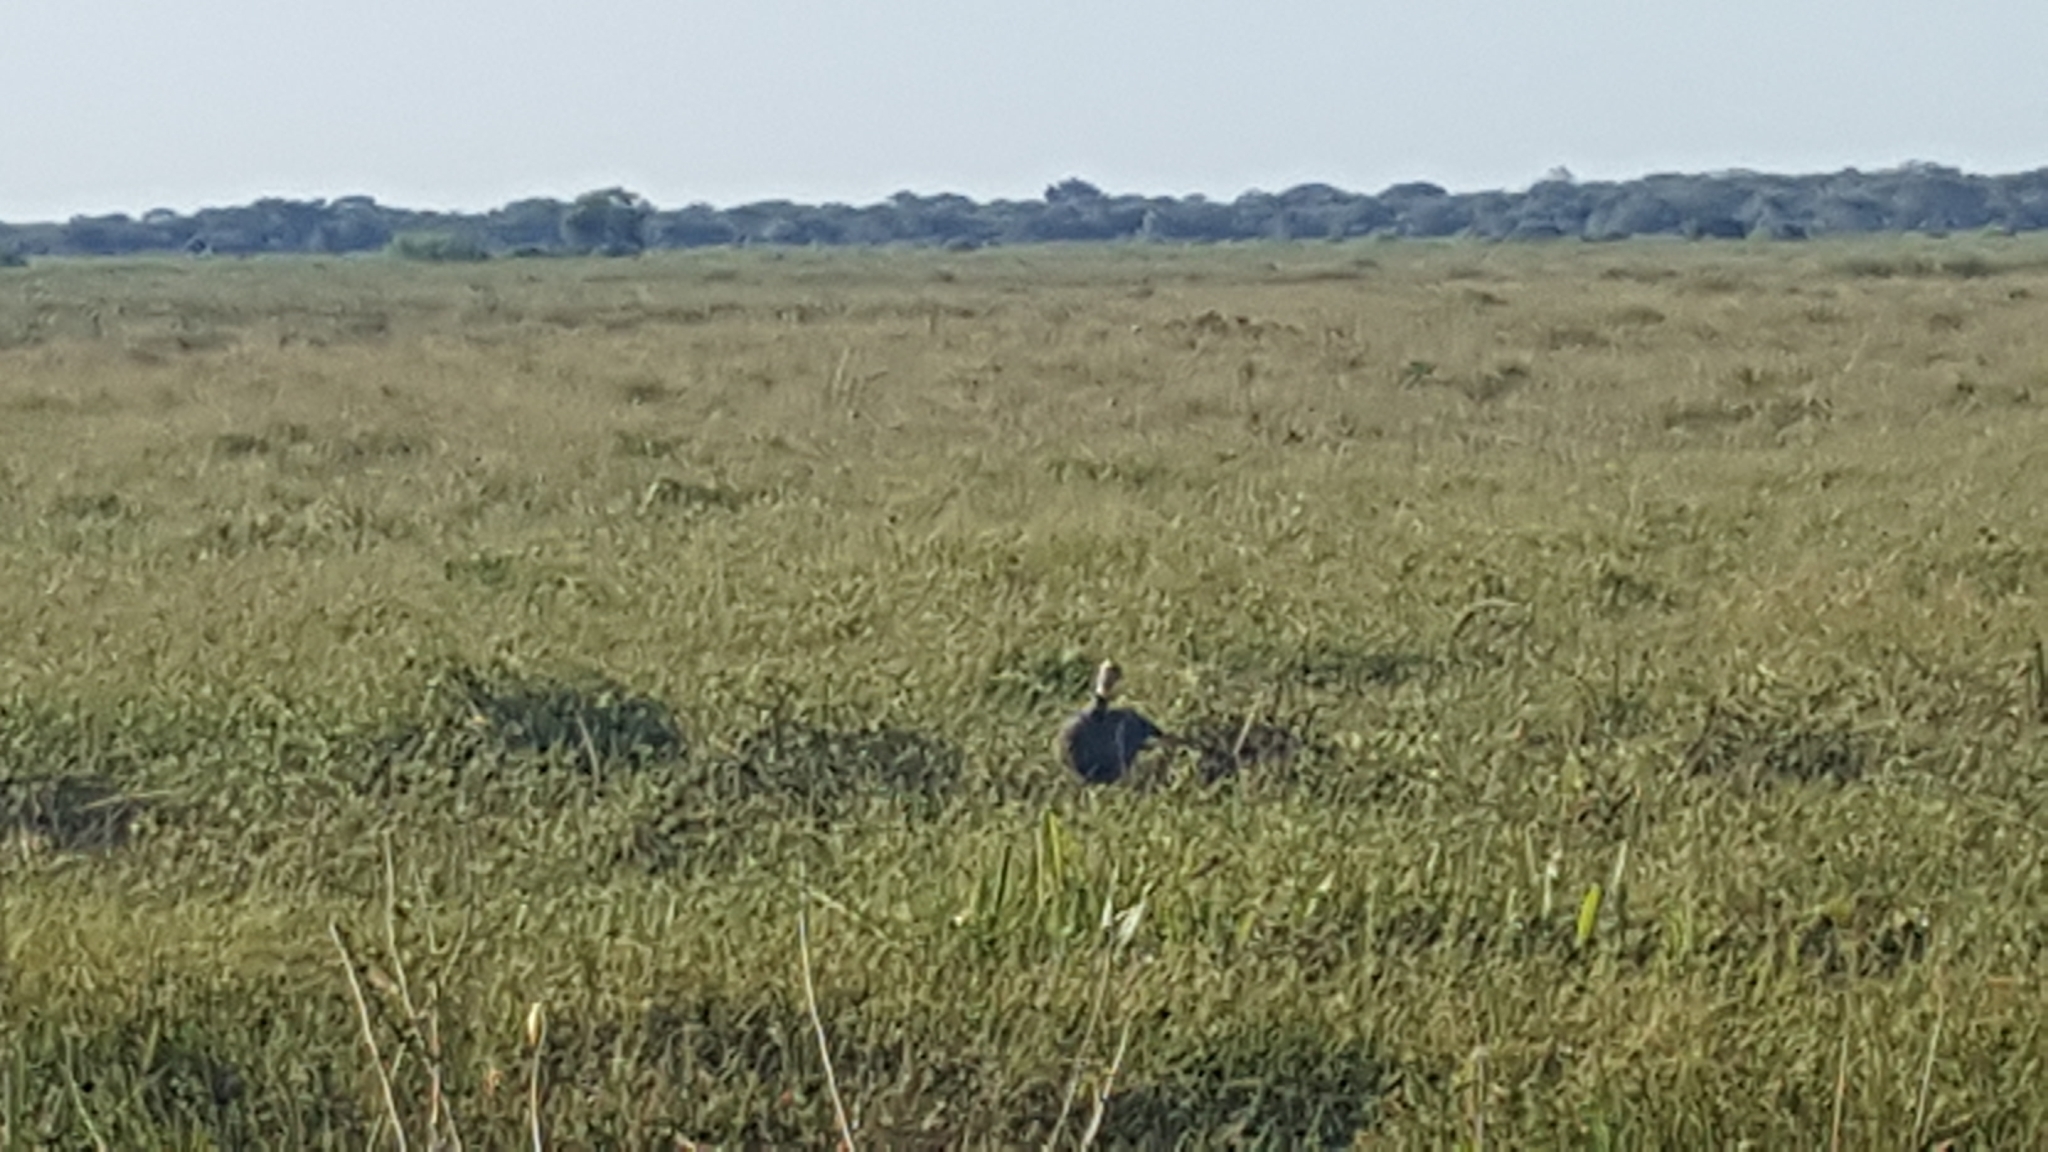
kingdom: Animalia
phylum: Chordata
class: Aves
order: Anseriformes
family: Anhimidae
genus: Chauna
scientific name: Chauna torquata
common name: Southern screamer
